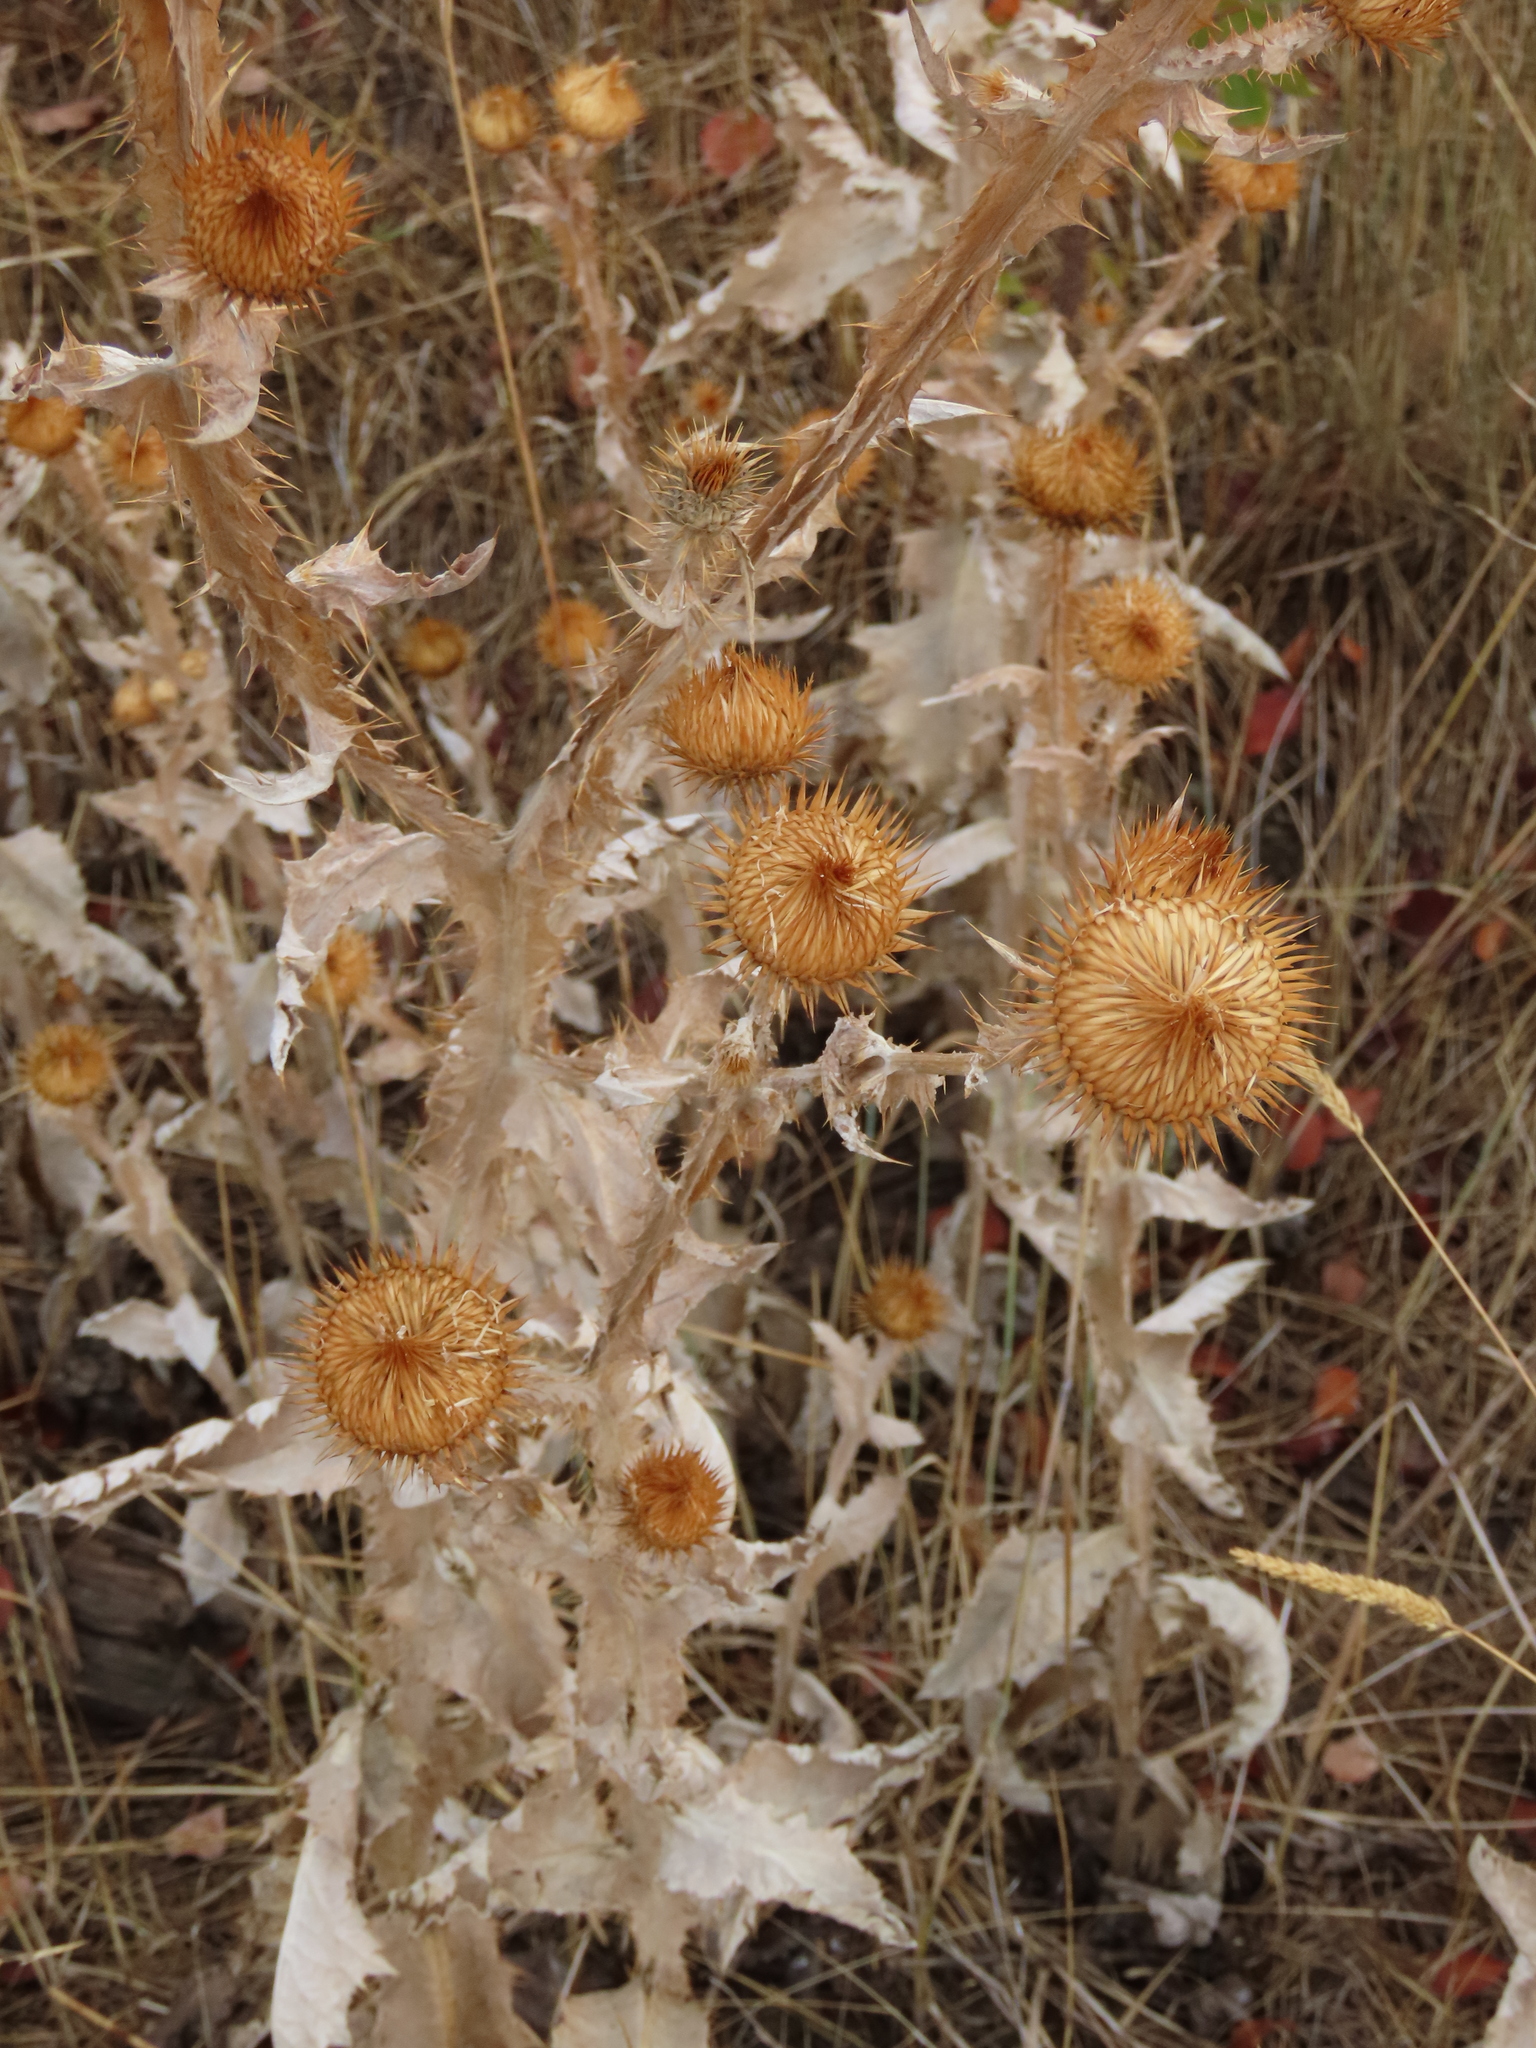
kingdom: Plantae
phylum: Tracheophyta
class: Magnoliopsida
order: Asterales
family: Asteraceae
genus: Onopordum
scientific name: Onopordum acanthium
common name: Scotch thistle
